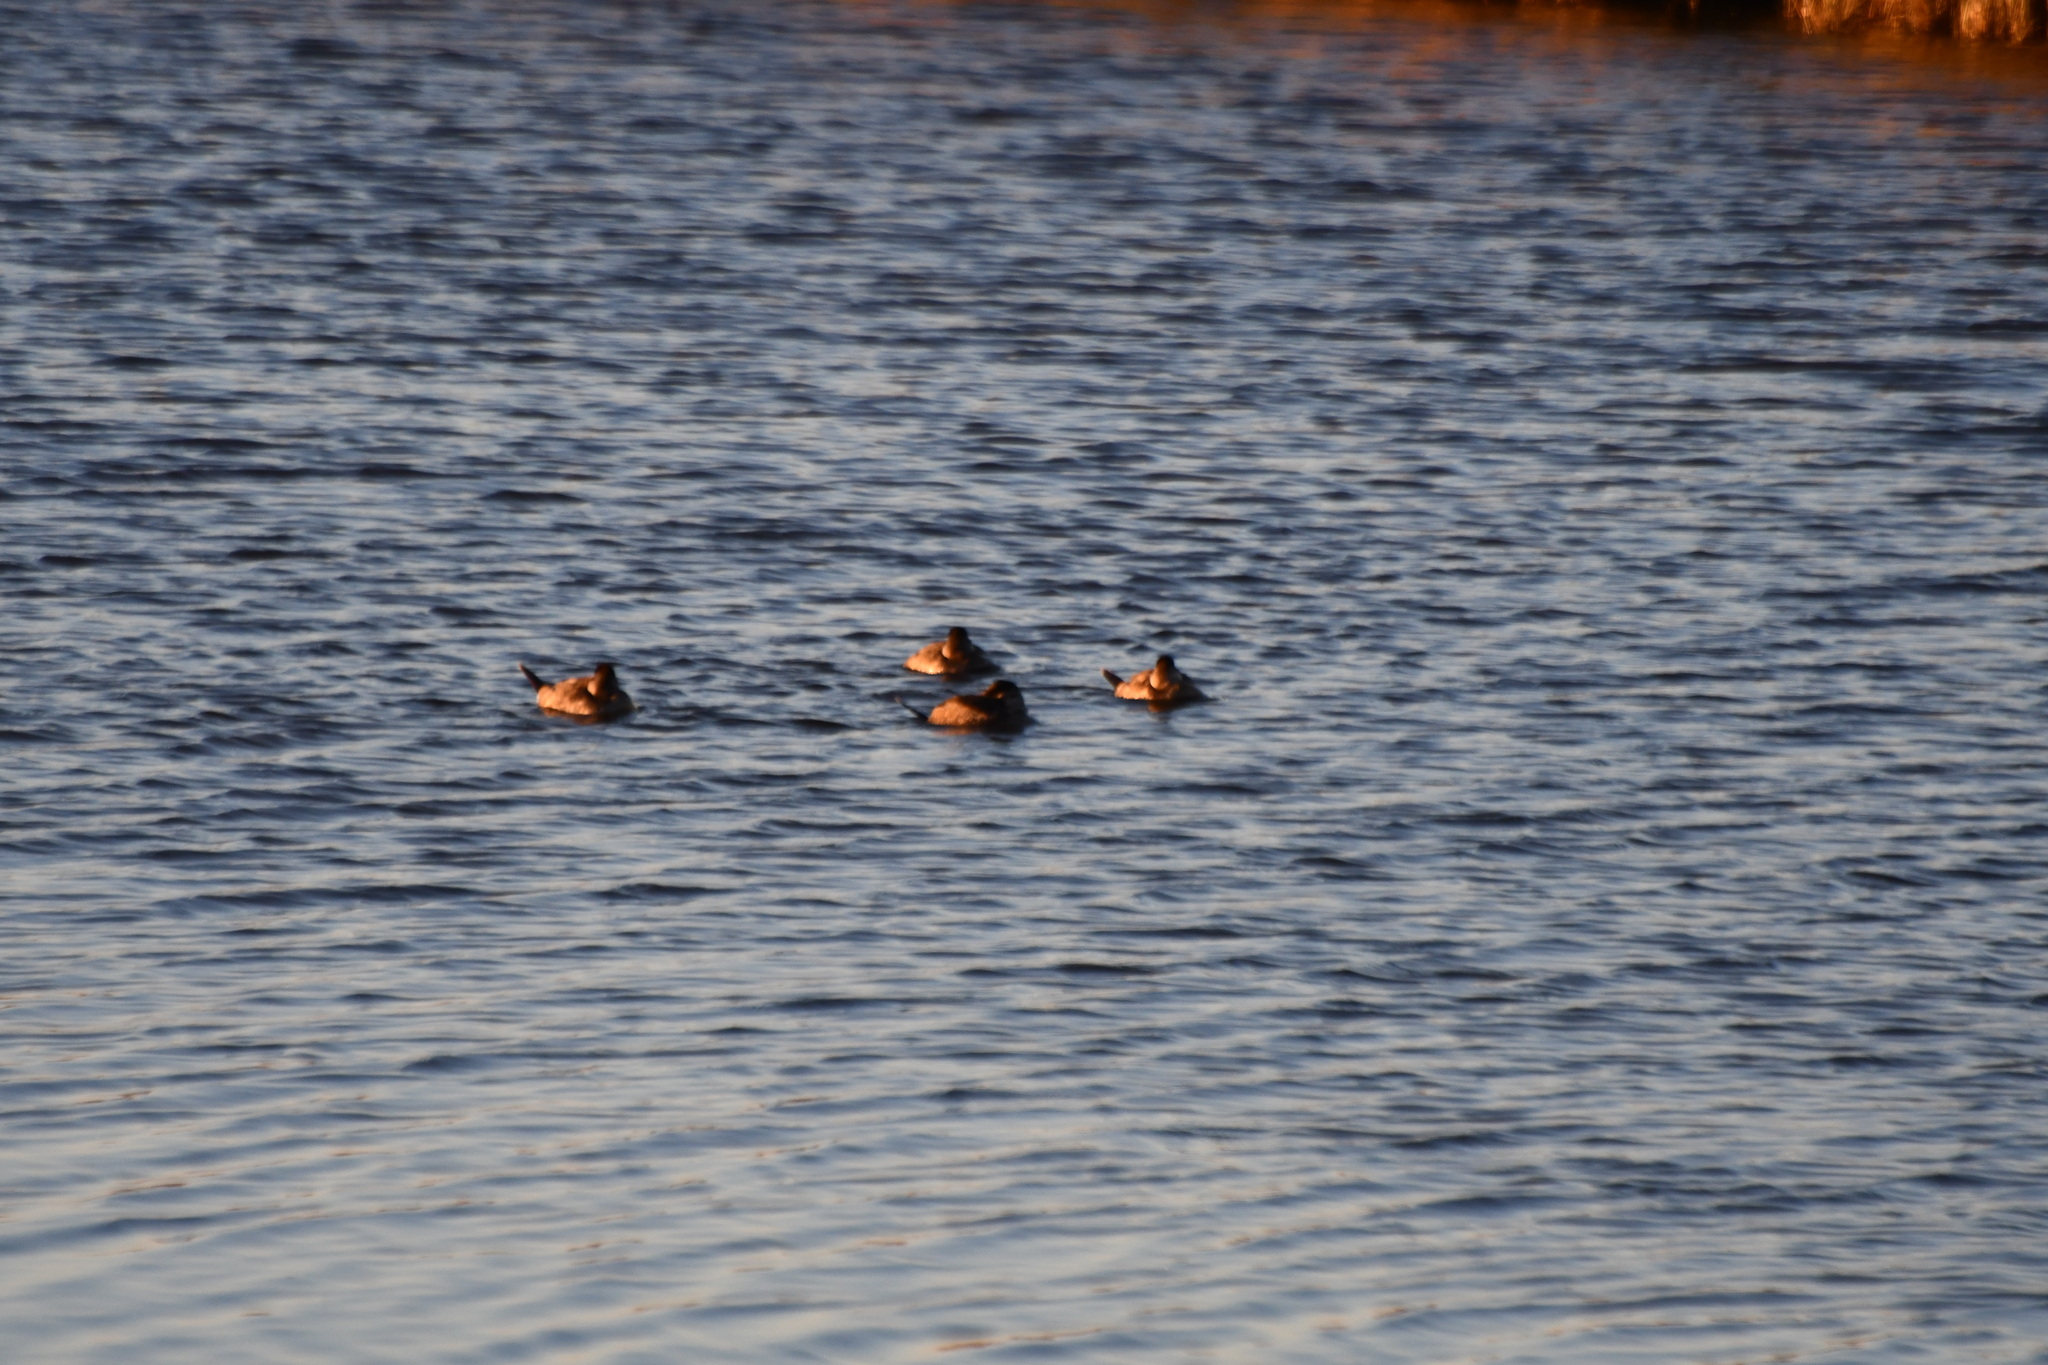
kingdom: Animalia
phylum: Chordata
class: Aves
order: Anseriformes
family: Anatidae
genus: Oxyura
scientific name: Oxyura jamaicensis
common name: Ruddy duck
